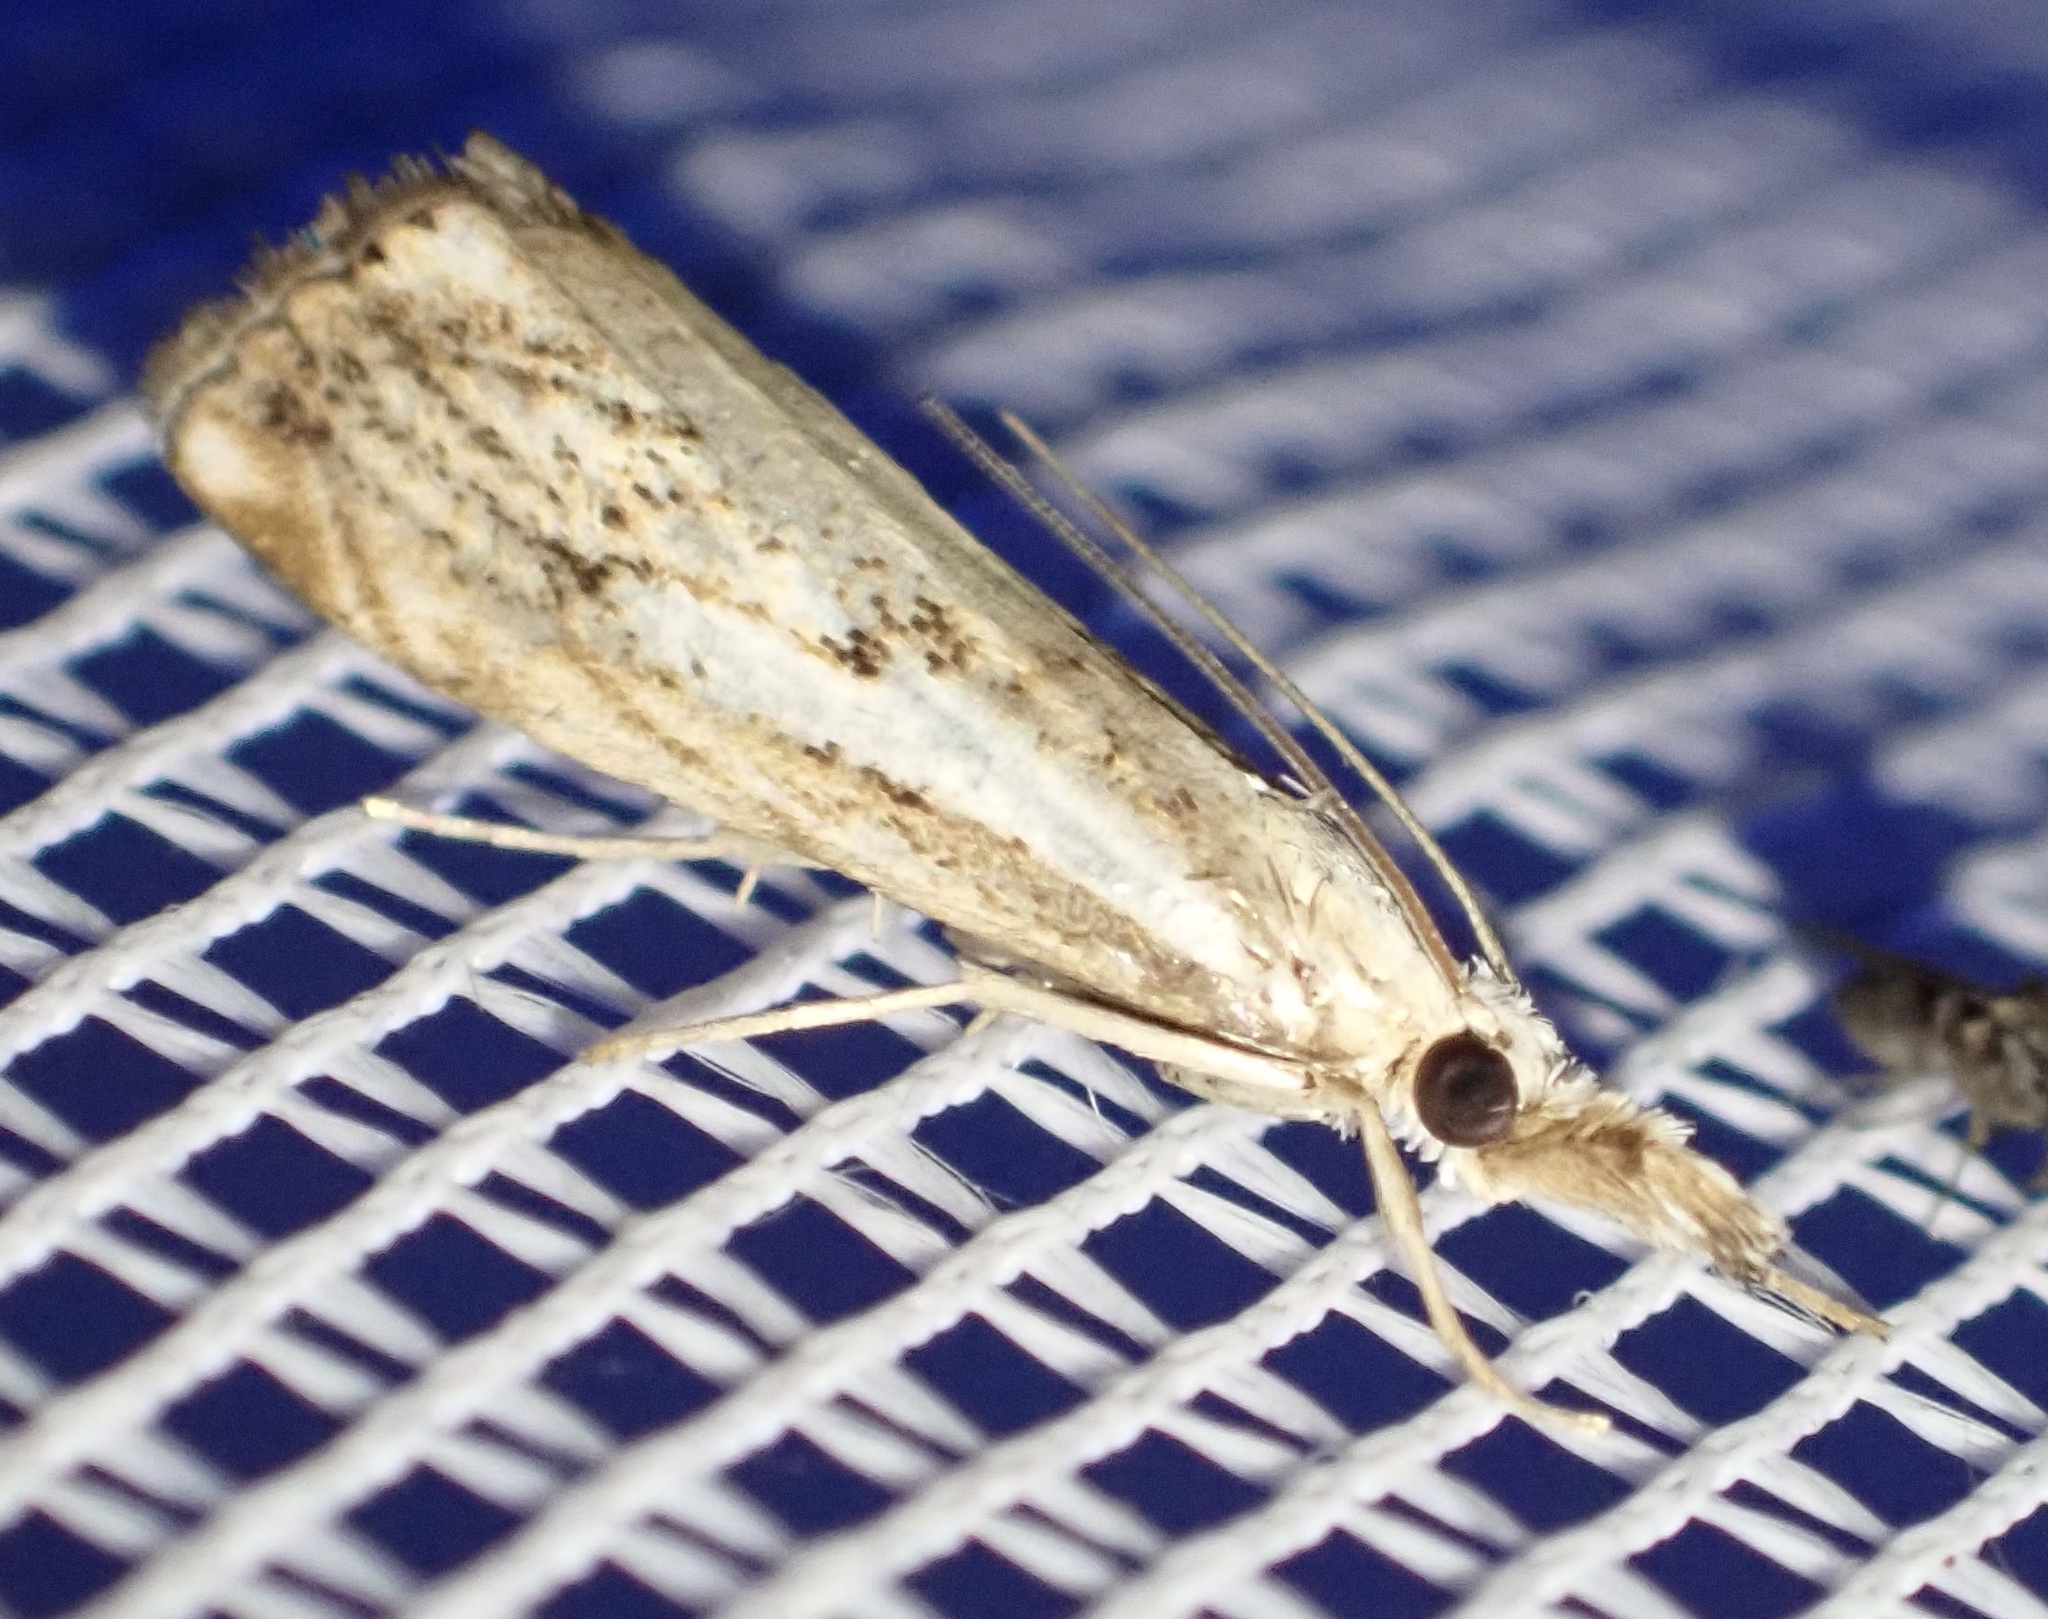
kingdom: Animalia
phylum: Arthropoda
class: Insecta
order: Lepidoptera
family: Crambidae
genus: Catoptria
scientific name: Catoptria falsella
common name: Chequered grass-veneer
